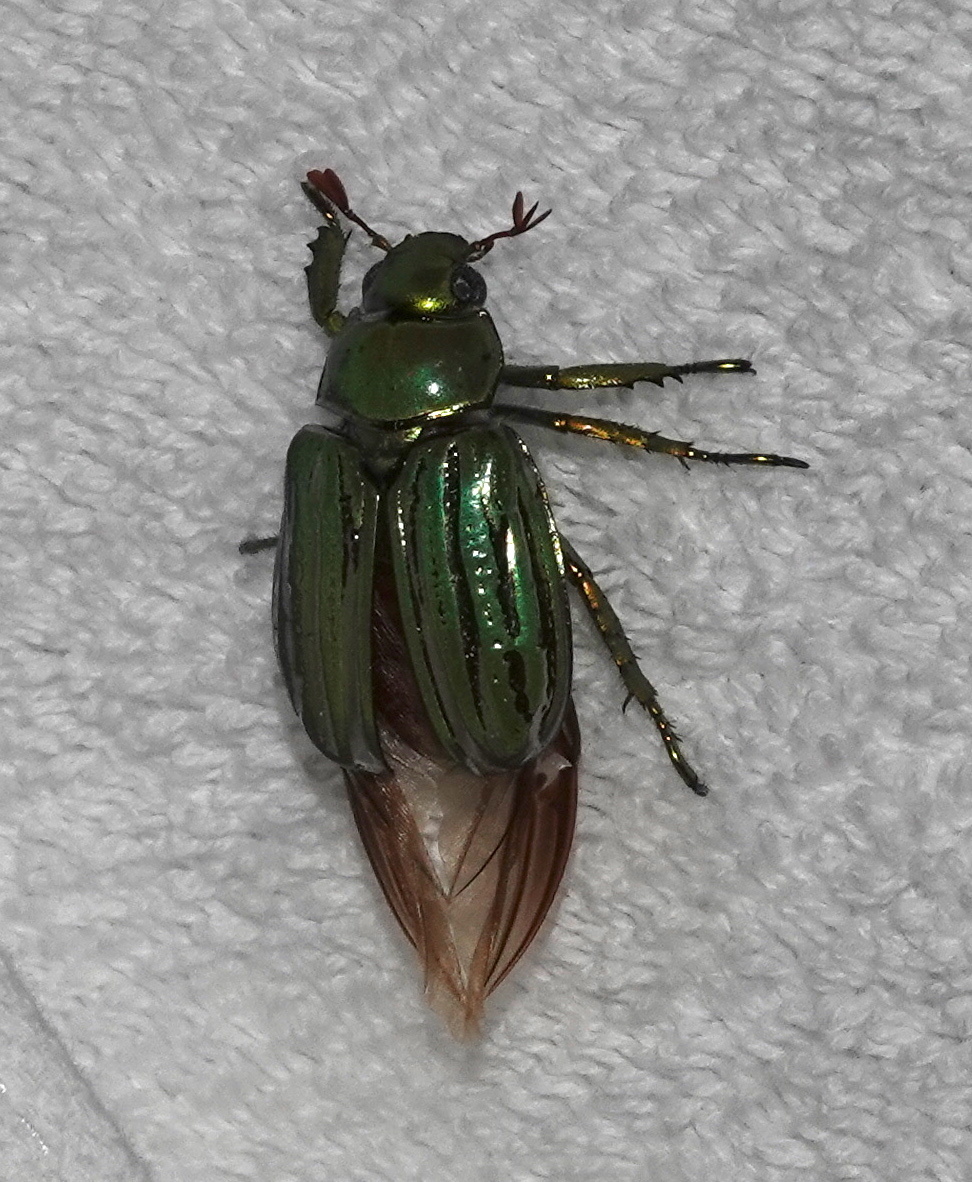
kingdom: Animalia
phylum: Arthropoda
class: Insecta
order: Coleoptera
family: Scarabaeidae
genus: Chrysina
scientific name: Chrysina gloriosa
